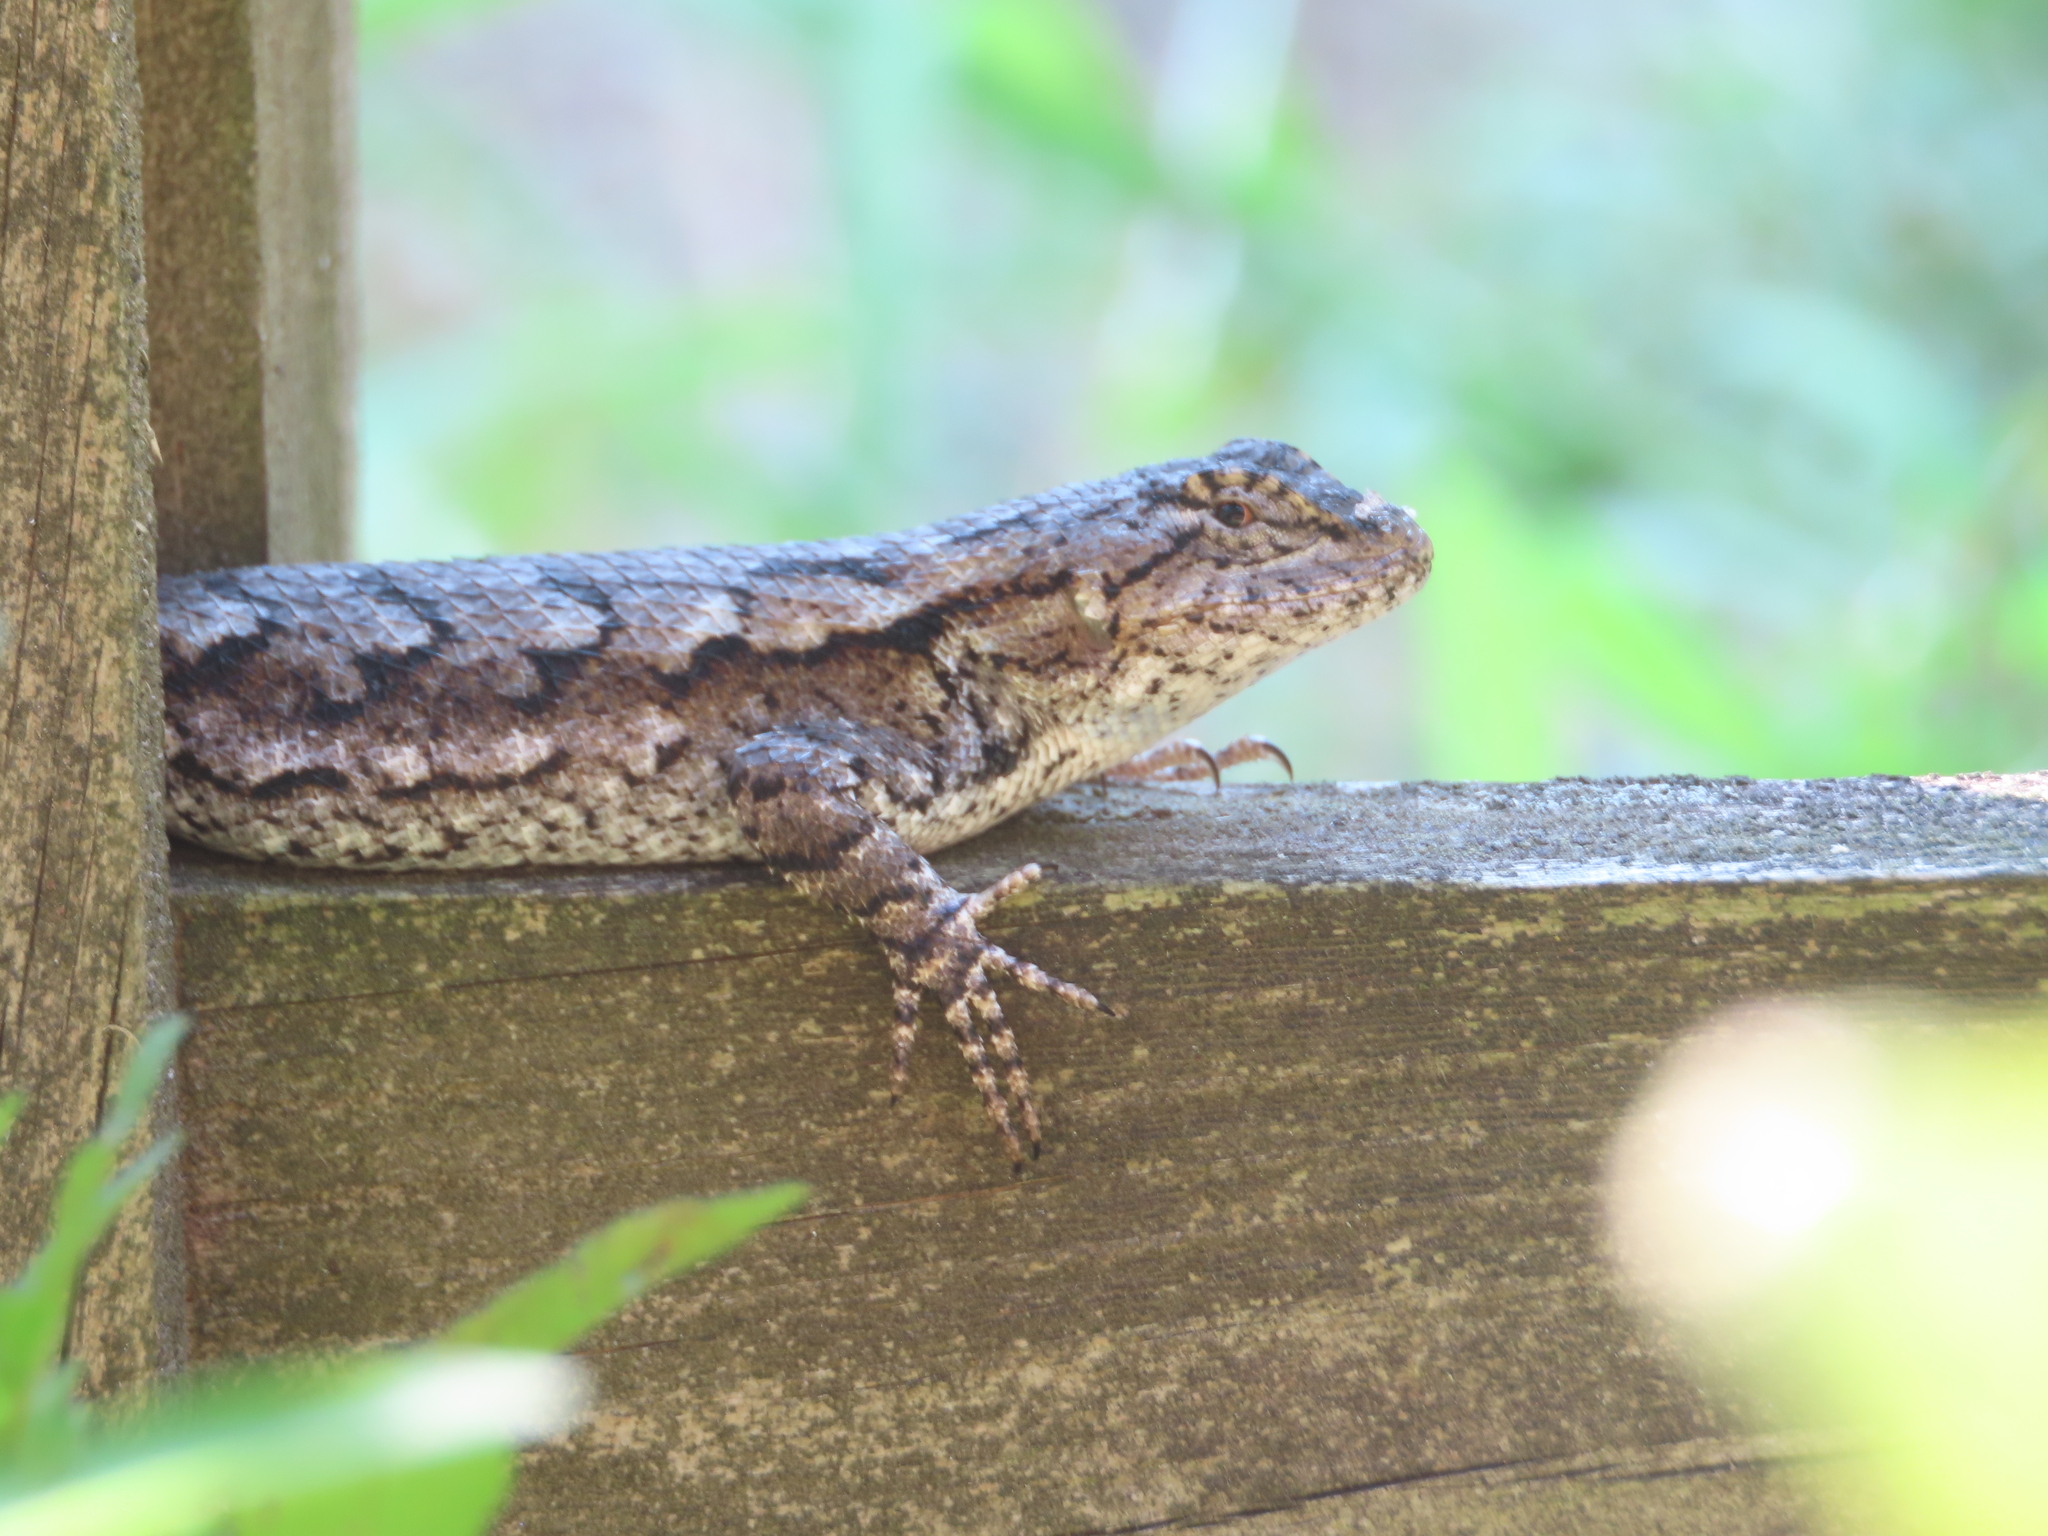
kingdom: Animalia
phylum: Chordata
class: Squamata
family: Phrynosomatidae
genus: Sceloporus
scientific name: Sceloporus undulatus
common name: Eastern fence lizard
